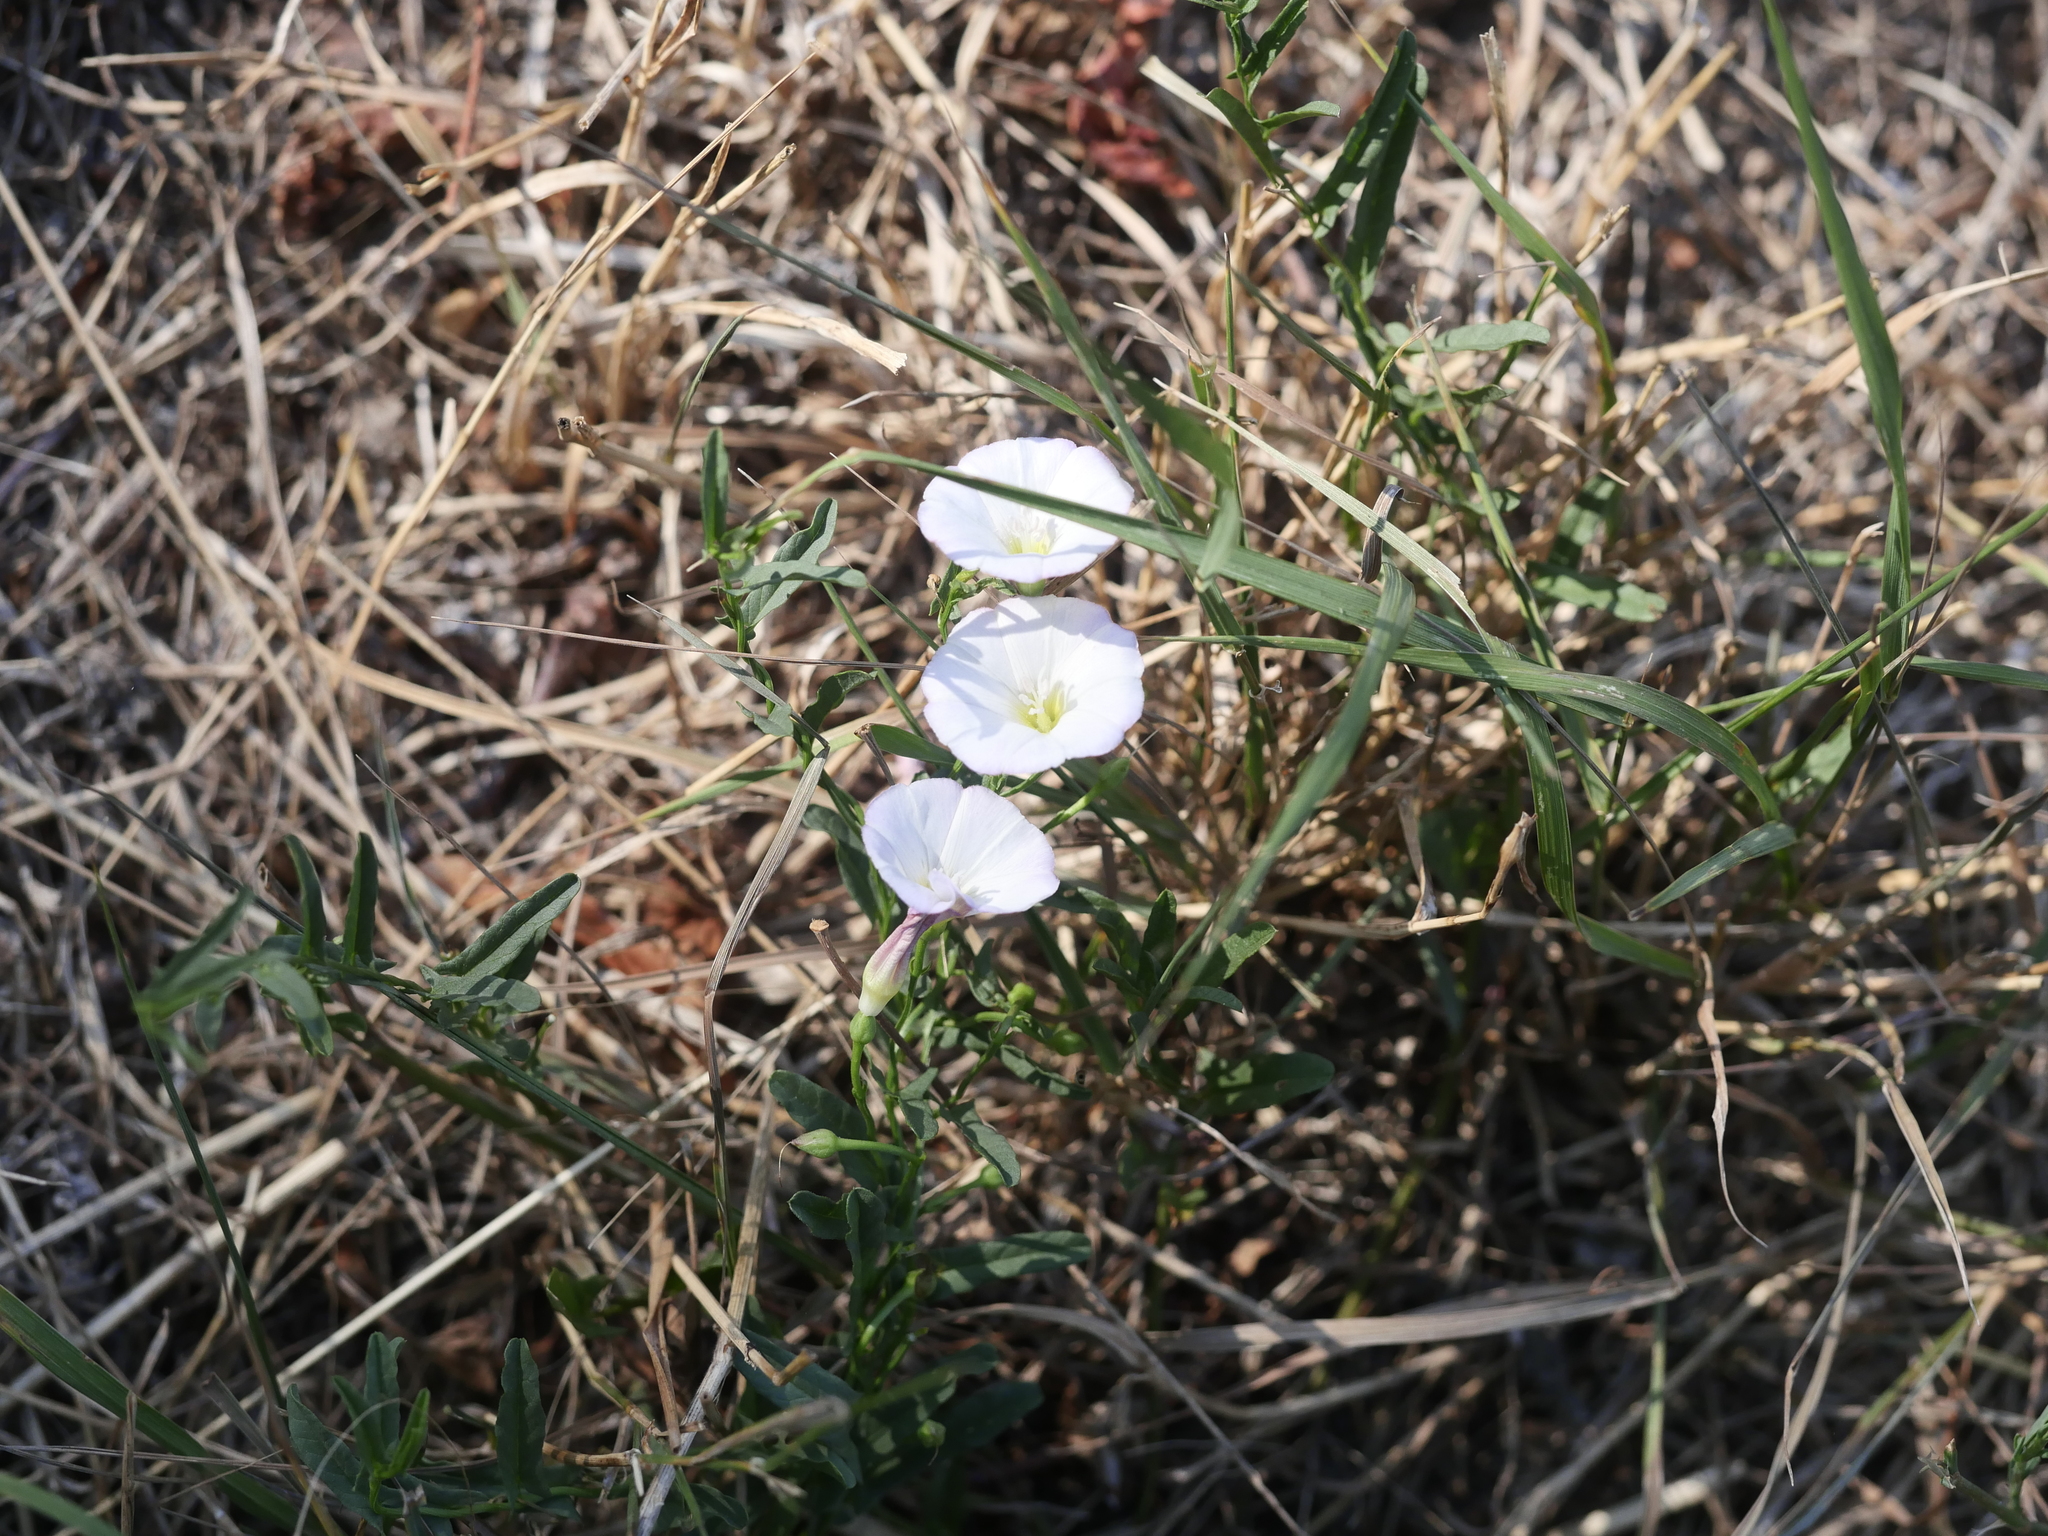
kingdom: Plantae
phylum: Tracheophyta
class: Magnoliopsida
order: Solanales
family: Convolvulaceae
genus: Convolvulus
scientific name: Convolvulus arvensis
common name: Field bindweed
